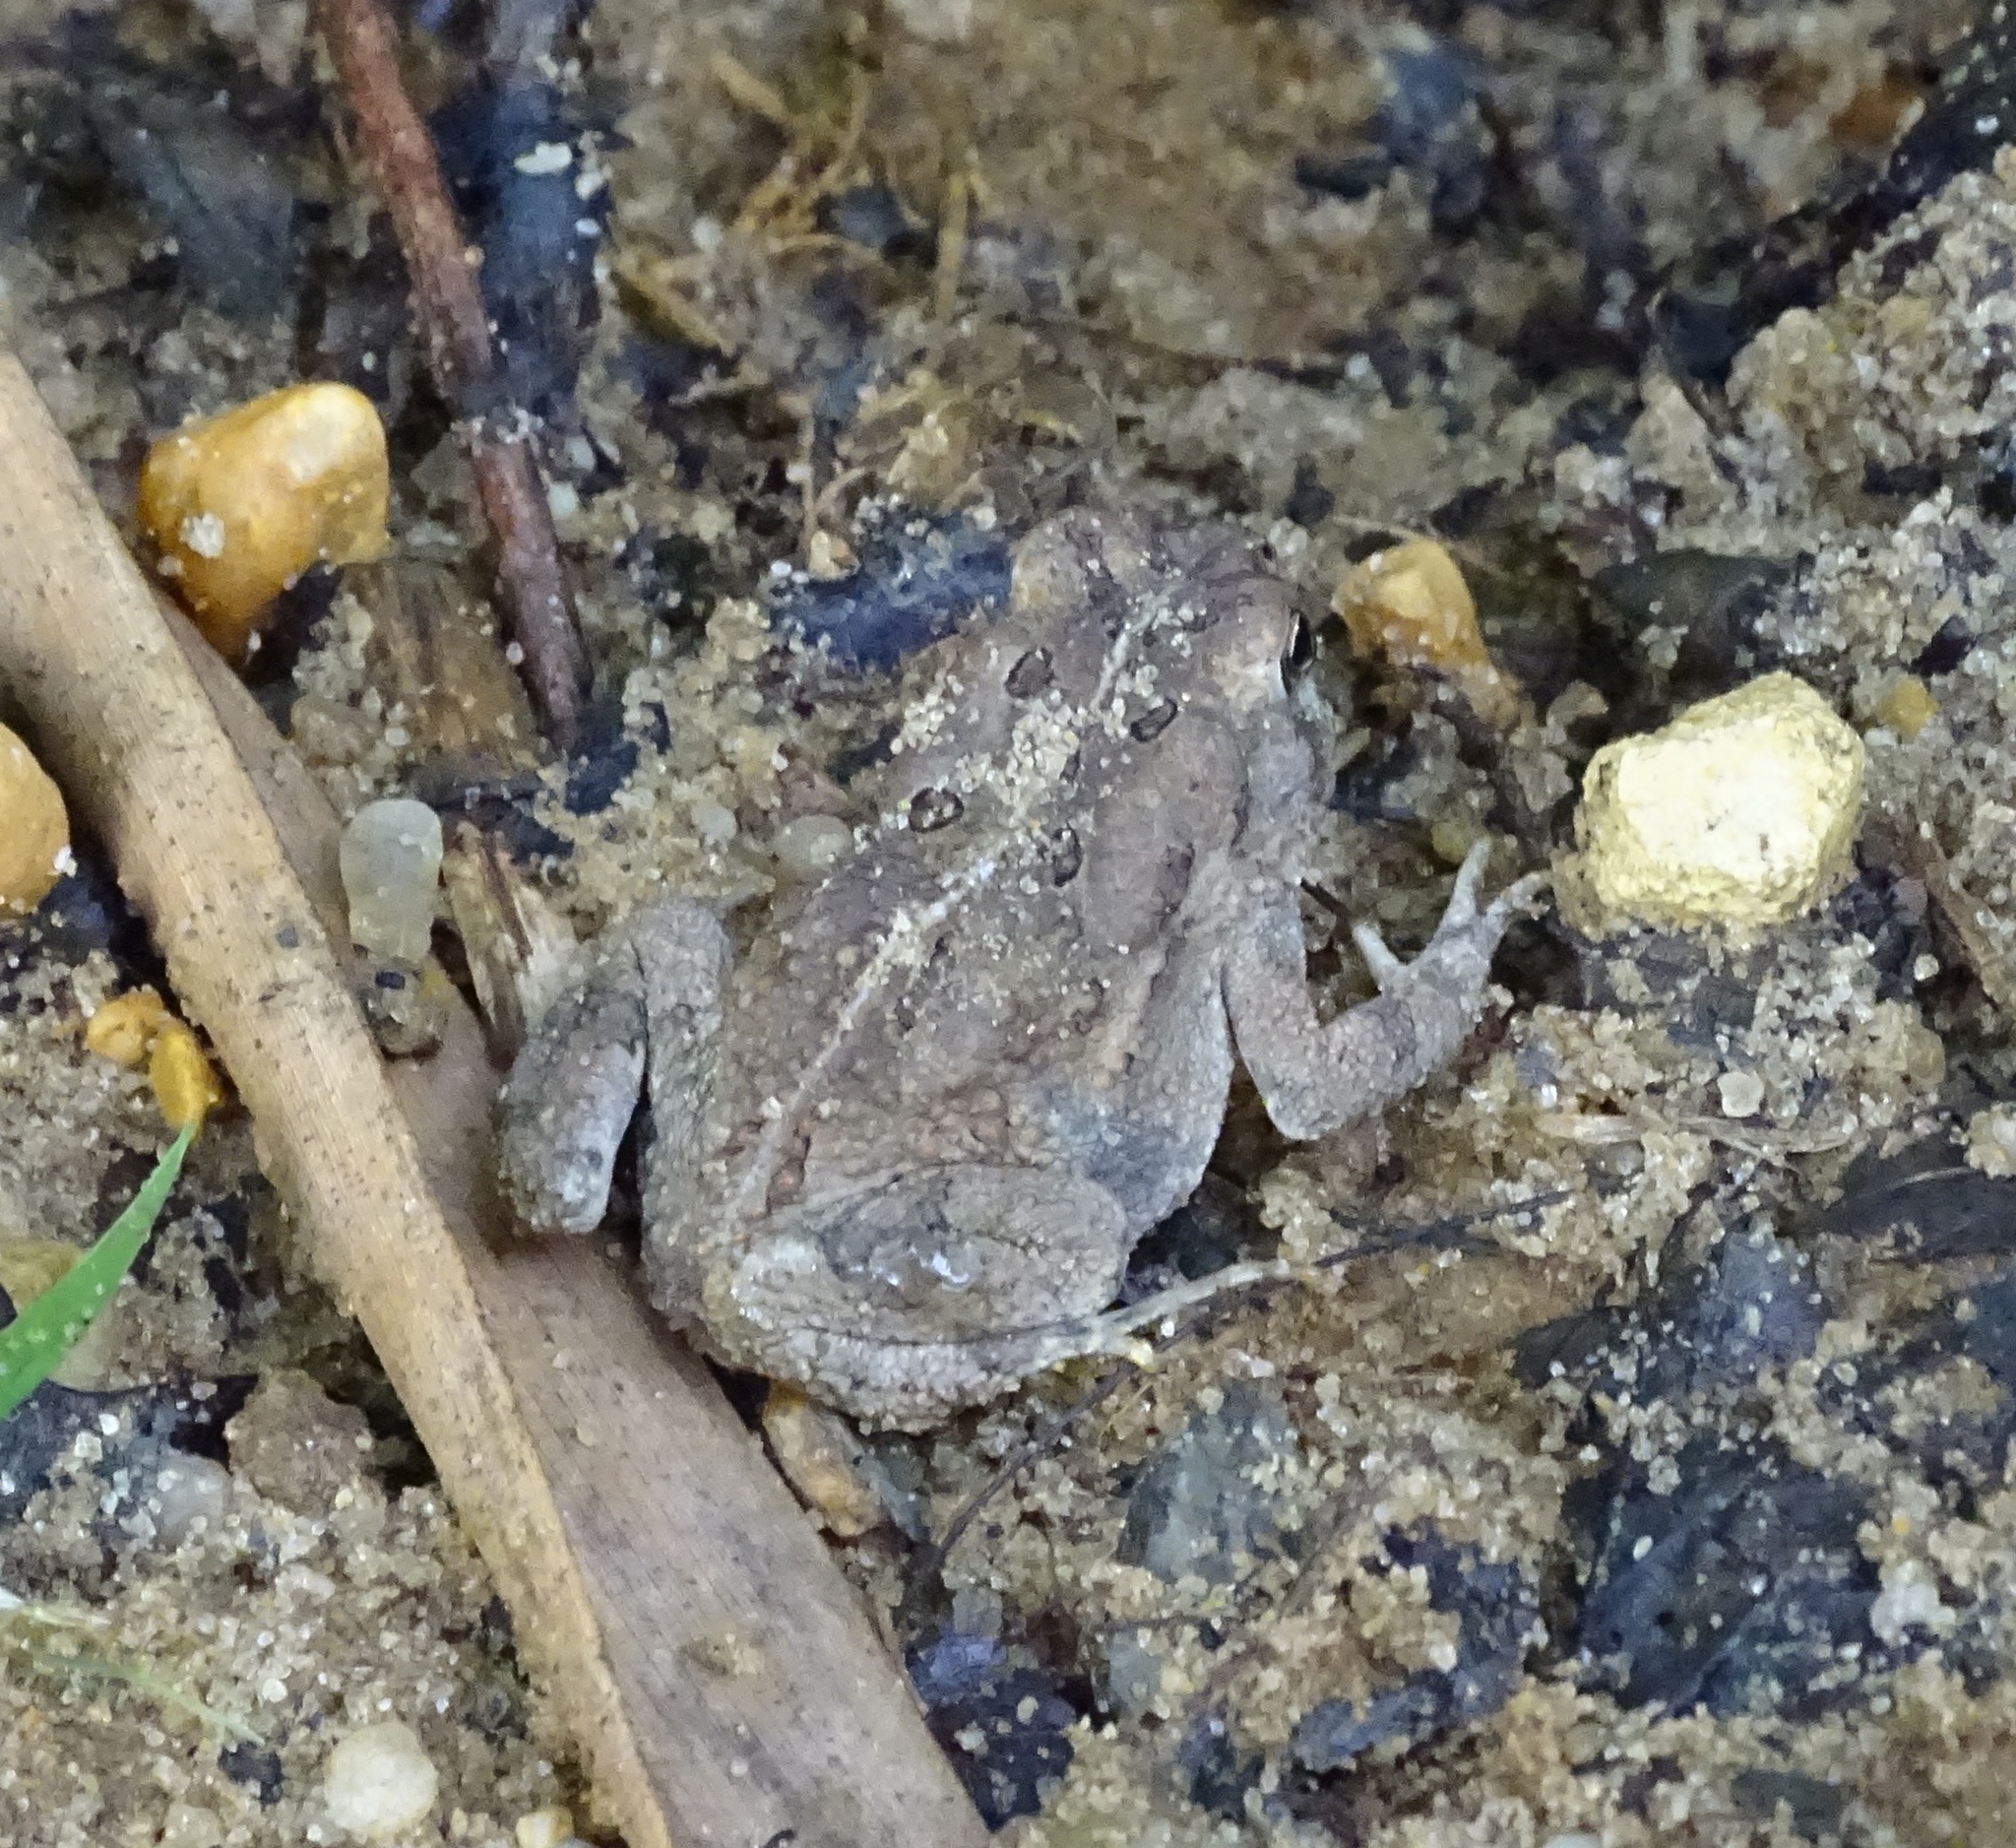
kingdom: Animalia
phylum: Chordata
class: Amphibia
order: Anura
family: Bufonidae
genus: Anaxyrus
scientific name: Anaxyrus fowleri
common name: Fowler's toad
